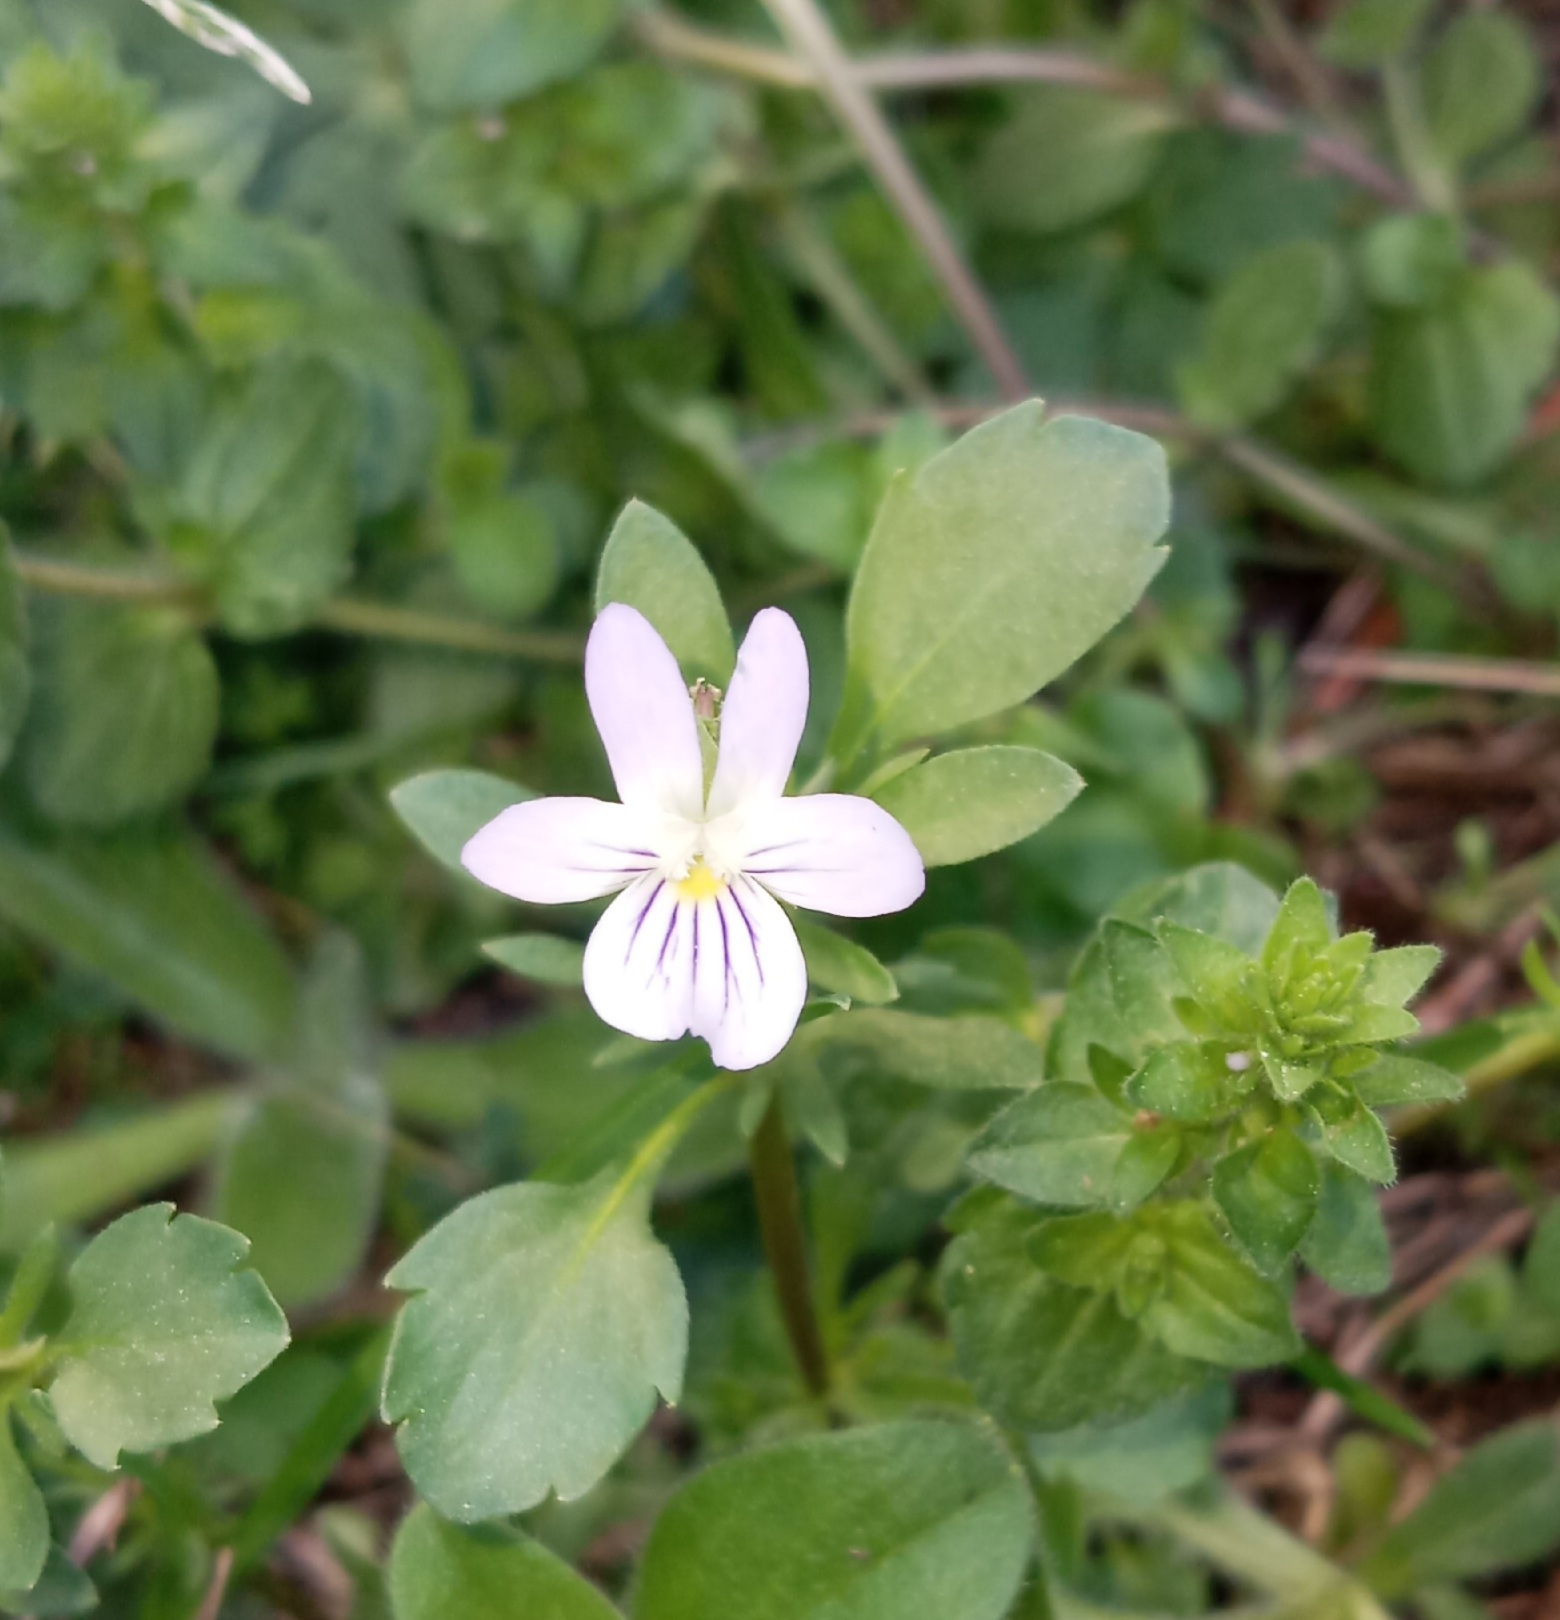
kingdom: Plantae
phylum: Tracheophyta
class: Magnoliopsida
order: Malpighiales
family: Violaceae
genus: Viola
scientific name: Viola rafinesquei
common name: American field pansy
